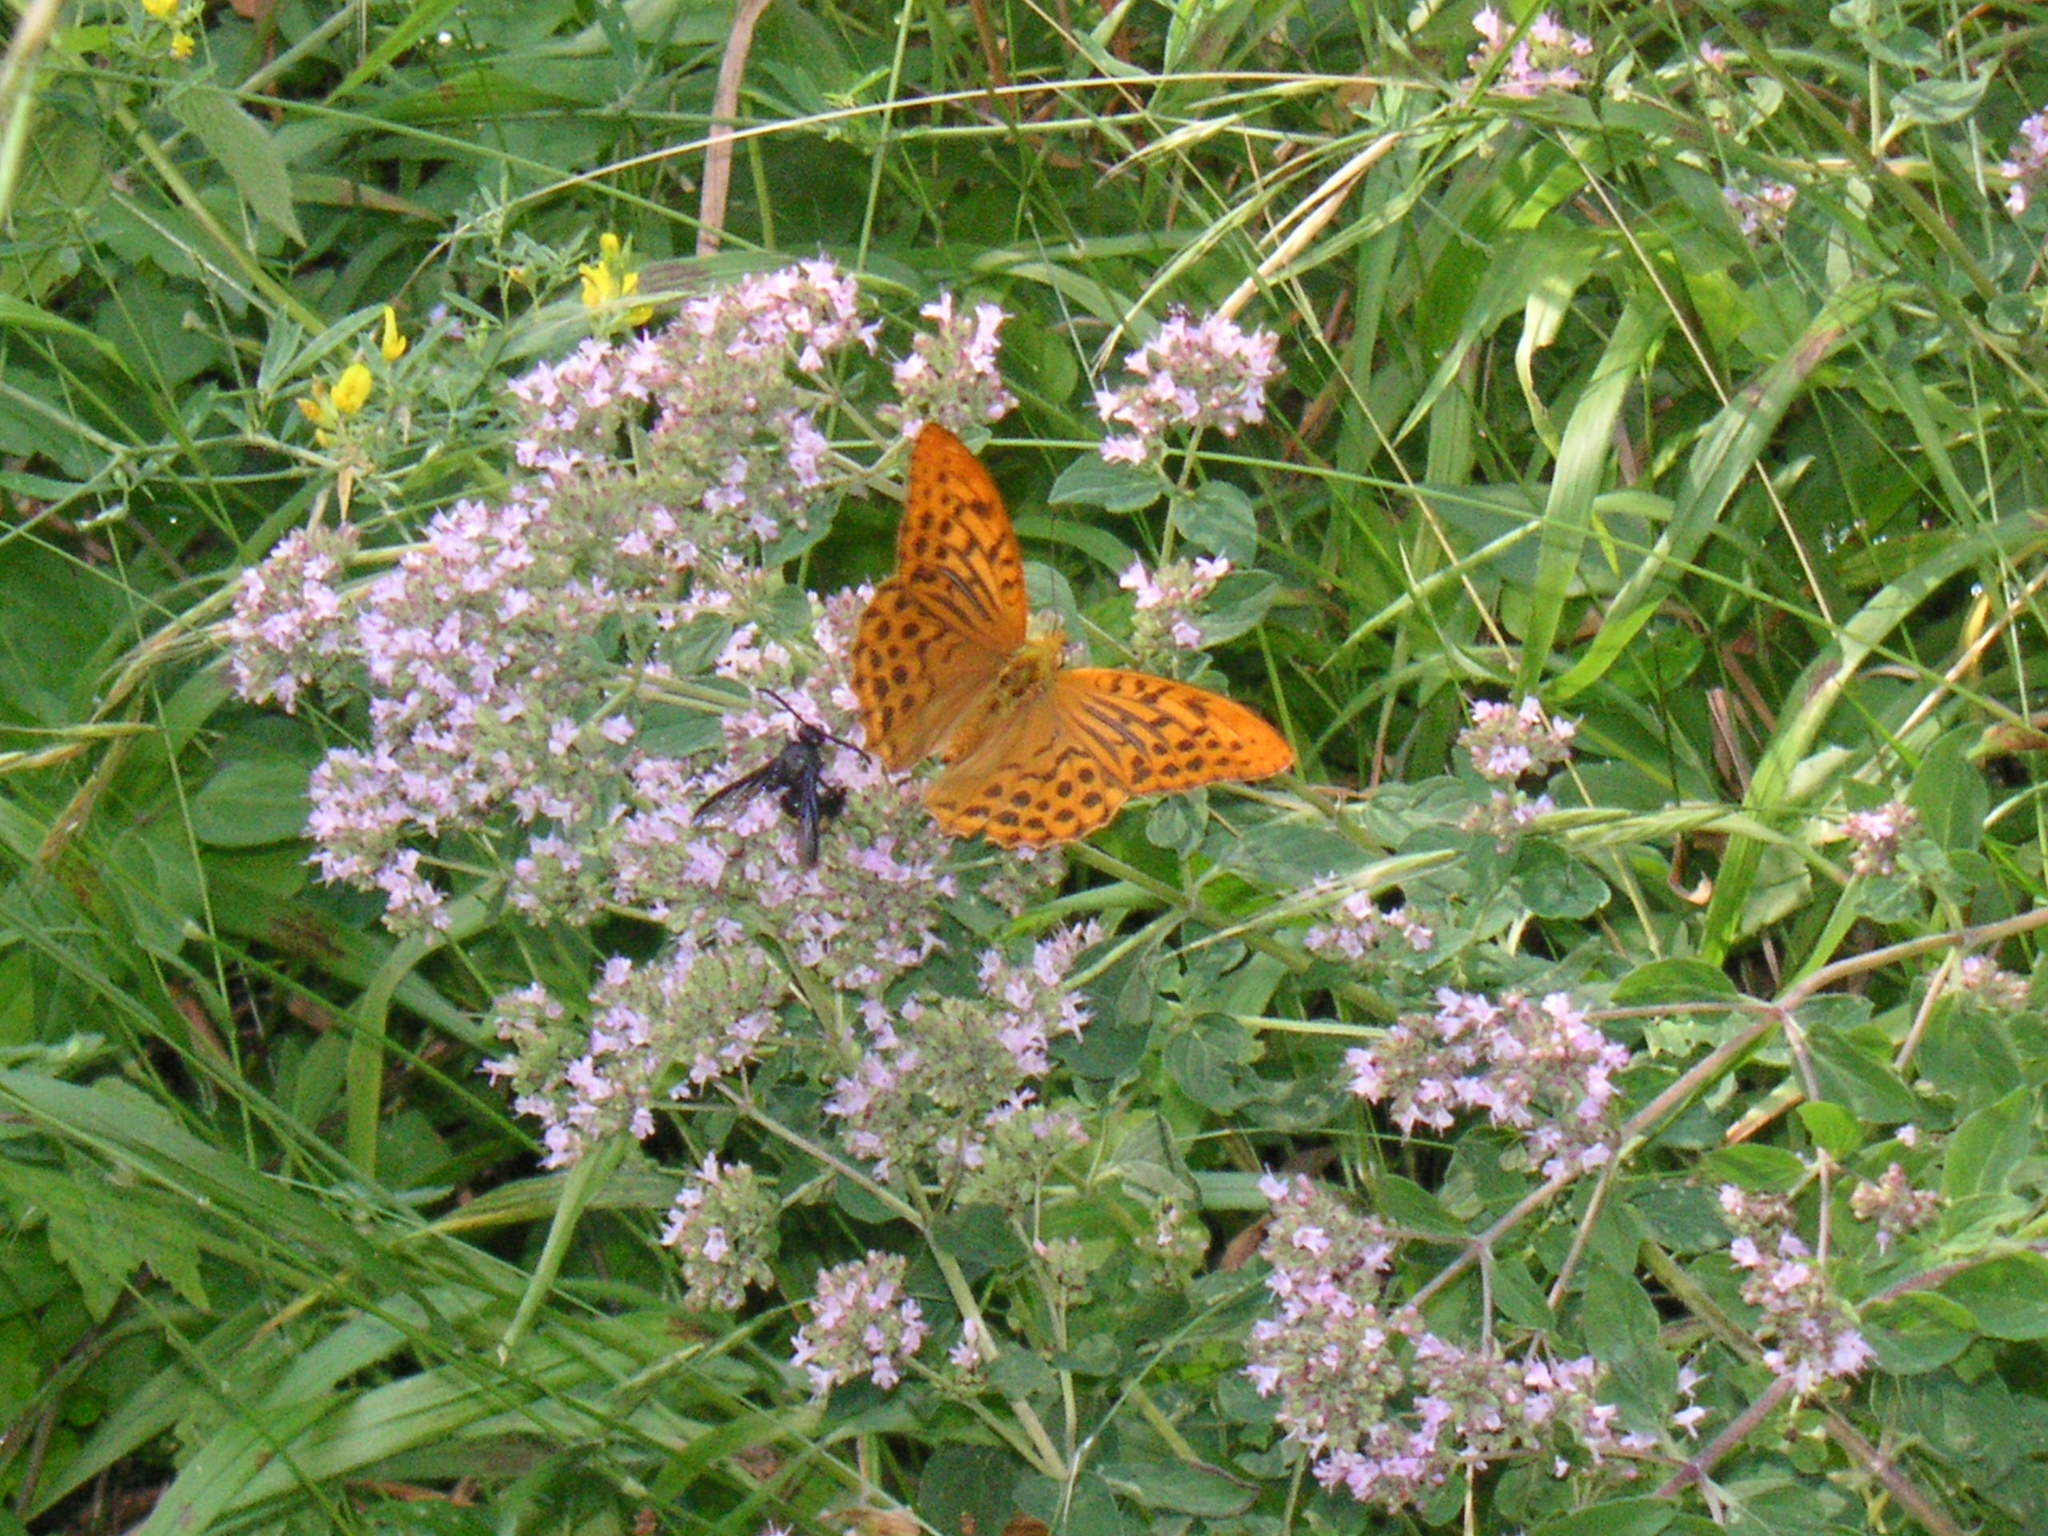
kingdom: Animalia
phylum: Arthropoda
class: Insecta
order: Lepidoptera
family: Nymphalidae
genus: Argynnis
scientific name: Argynnis paphia
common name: Silver-washed fritillary
